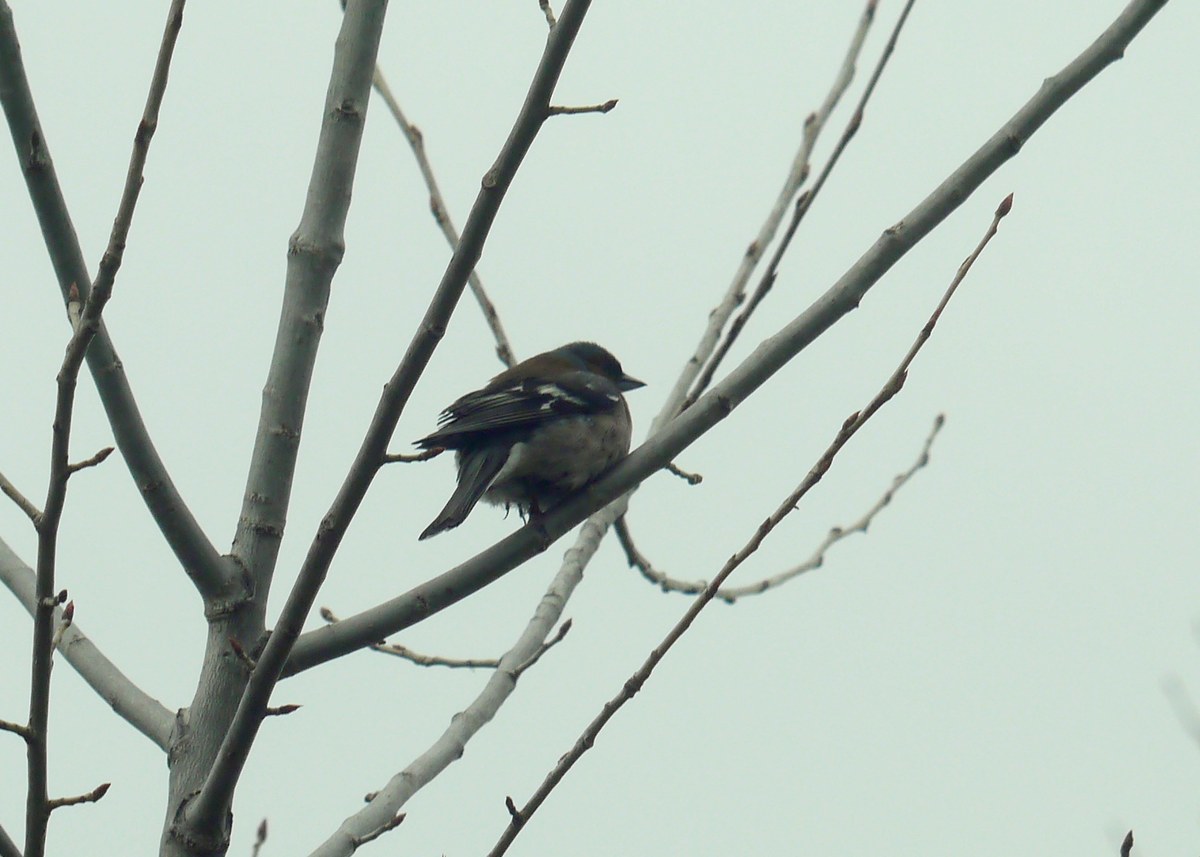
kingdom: Animalia
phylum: Chordata
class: Aves
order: Passeriformes
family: Fringillidae
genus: Fringilla
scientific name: Fringilla coelebs
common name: Common chaffinch
